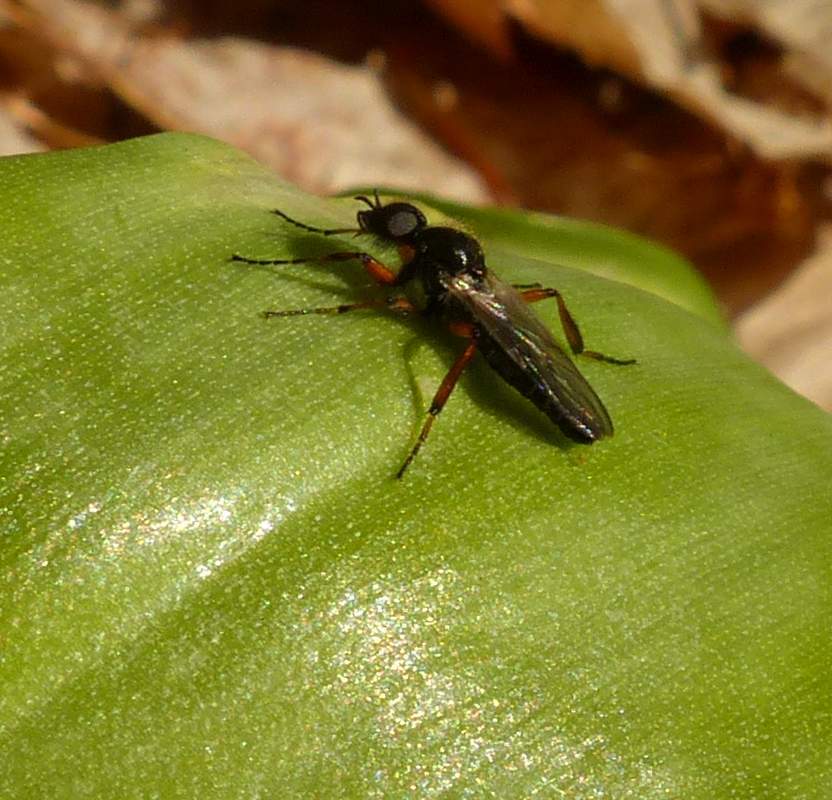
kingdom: Animalia
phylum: Arthropoda
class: Insecta
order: Diptera
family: Bibionidae
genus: Bibio
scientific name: Bibio xanthopus
